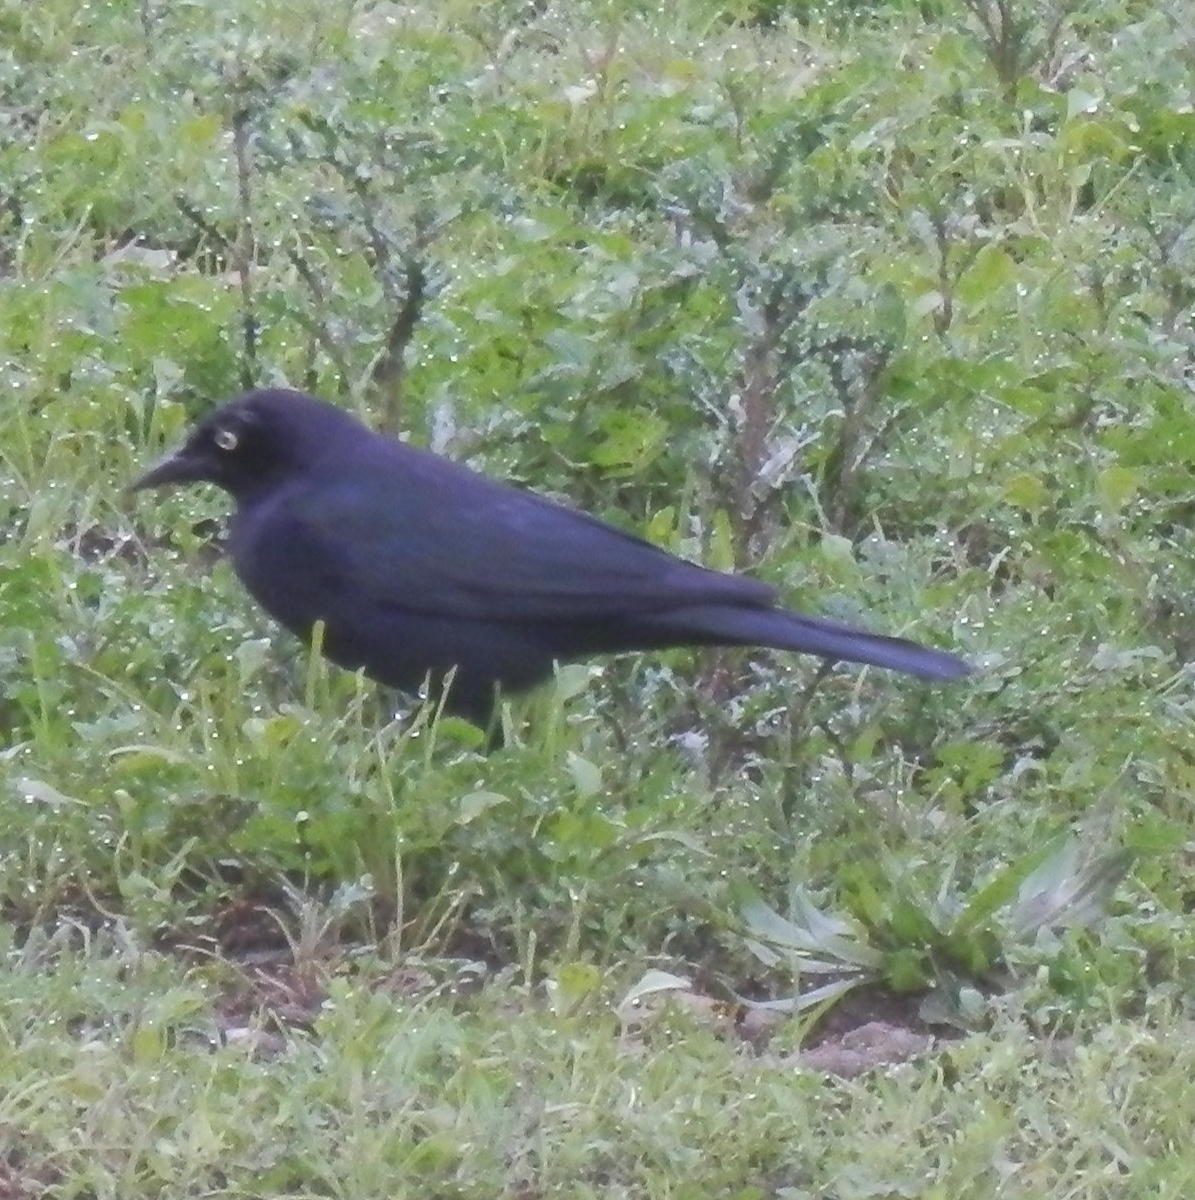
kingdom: Animalia
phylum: Chordata
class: Aves
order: Passeriformes
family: Icteridae
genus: Euphagus
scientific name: Euphagus cyanocephalus
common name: Brewer's blackbird
